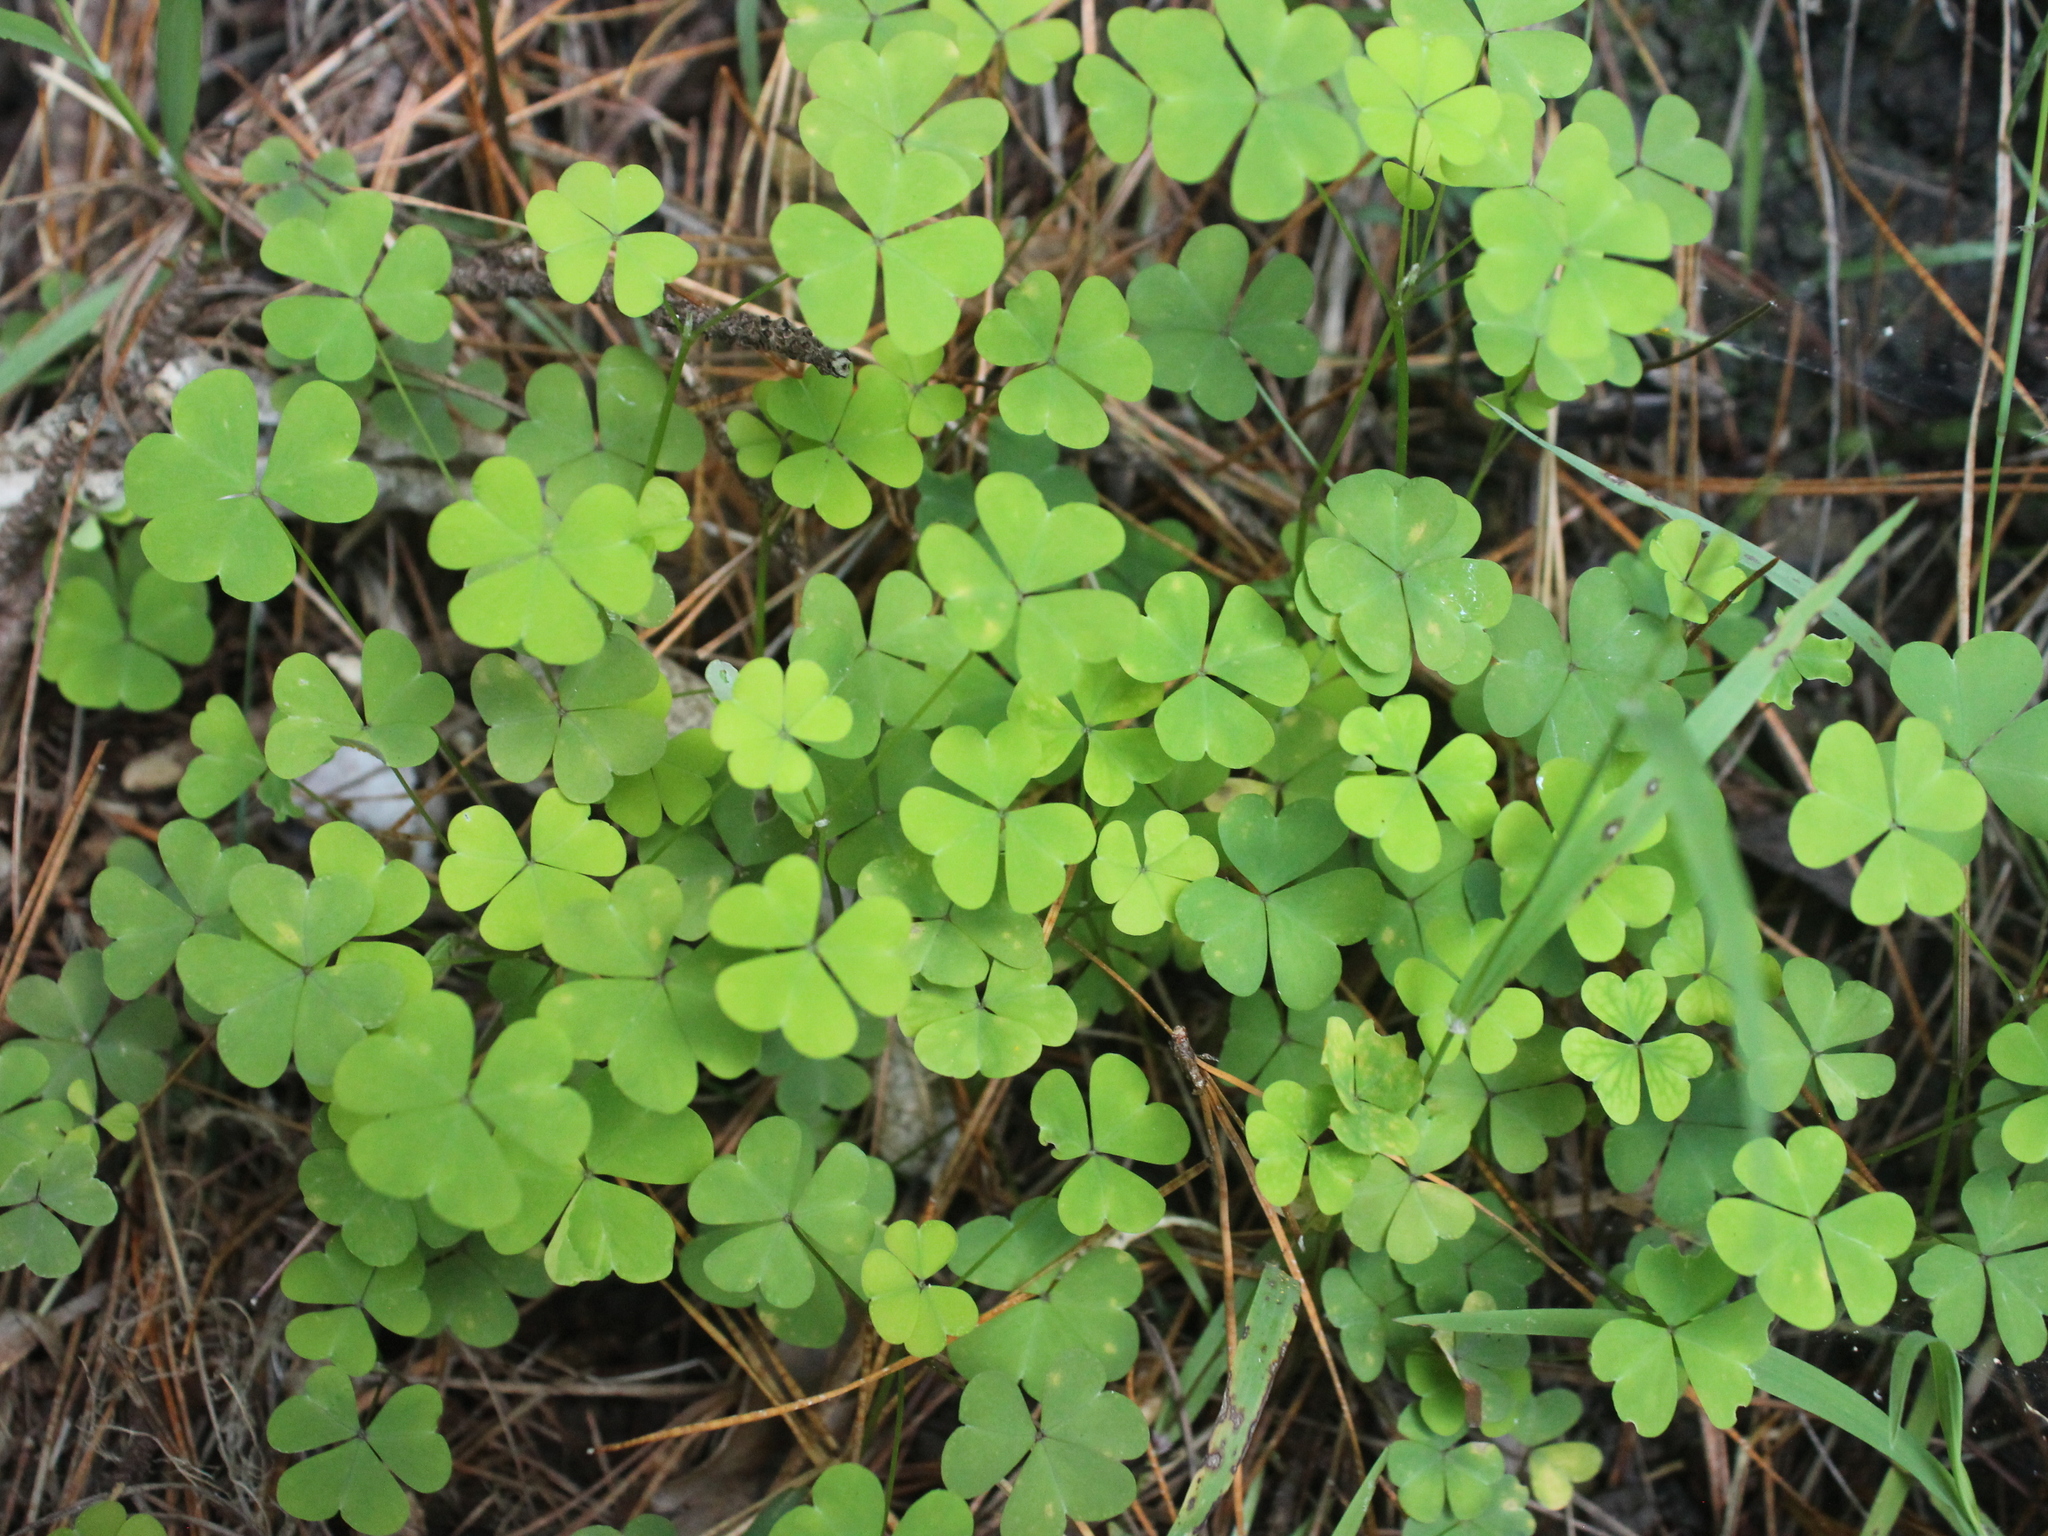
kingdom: Plantae
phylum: Tracheophyta
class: Magnoliopsida
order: Oxalidales
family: Oxalidaceae
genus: Oxalis
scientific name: Oxalis incarnata
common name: Pale pink-sorrel
